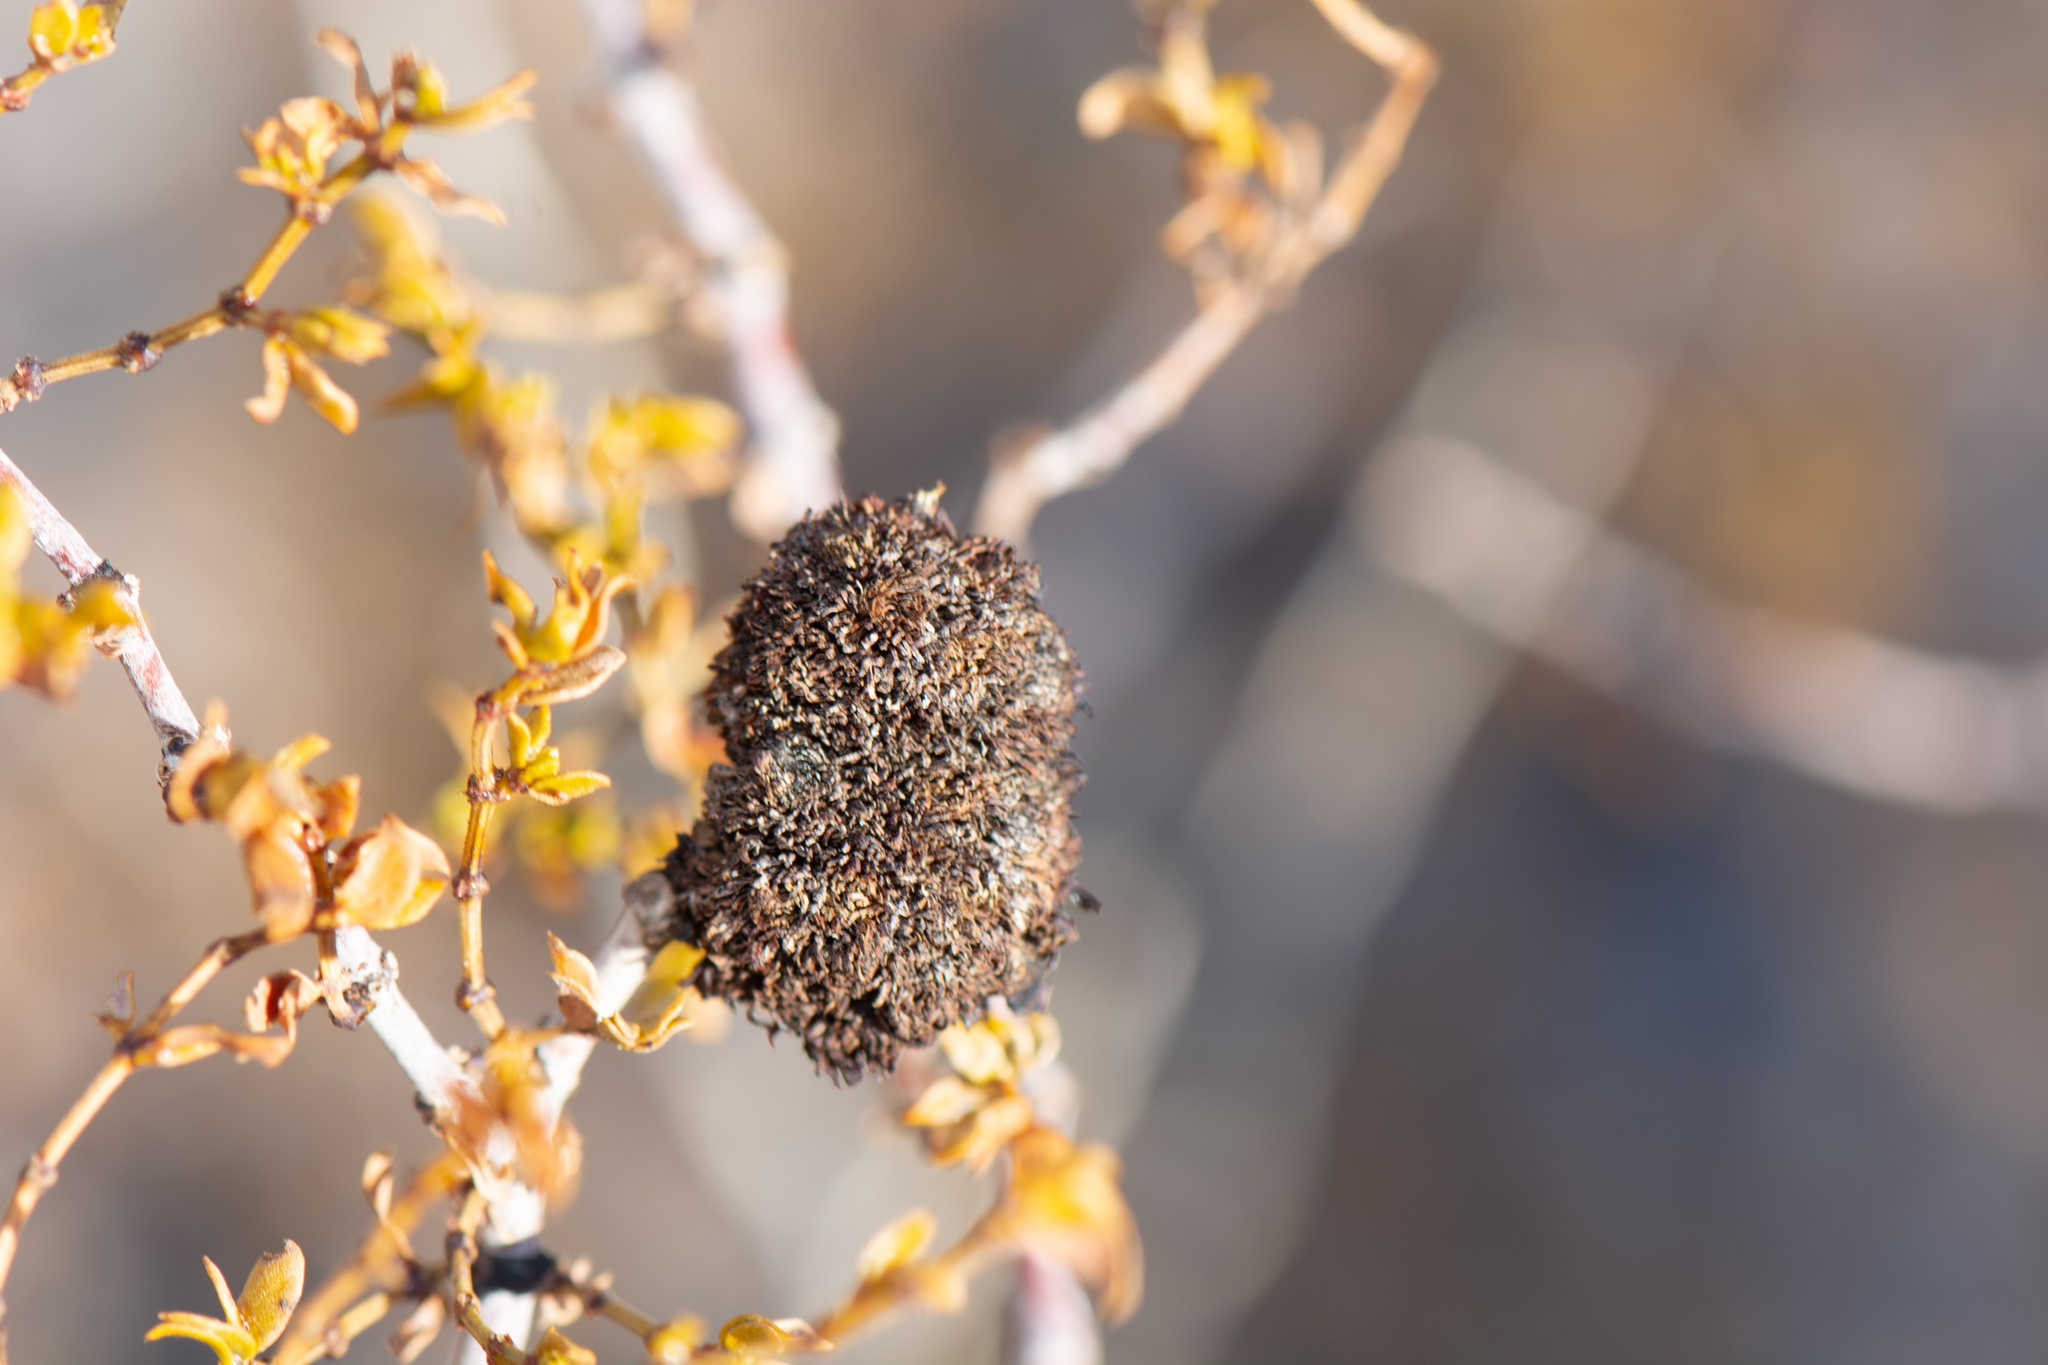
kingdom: Animalia
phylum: Arthropoda
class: Insecta
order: Diptera
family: Cecidomyiidae
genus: Asphondylia
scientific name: Asphondylia auripila
